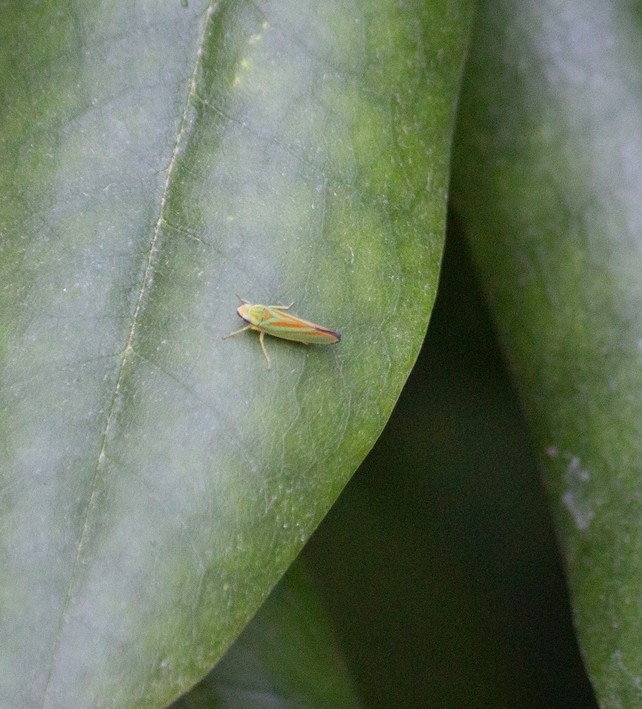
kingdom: Animalia
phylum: Arthropoda
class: Insecta
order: Hemiptera
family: Cicadellidae
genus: Graphocephala
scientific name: Graphocephala fennahi
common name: Rhododendron leafhopper
